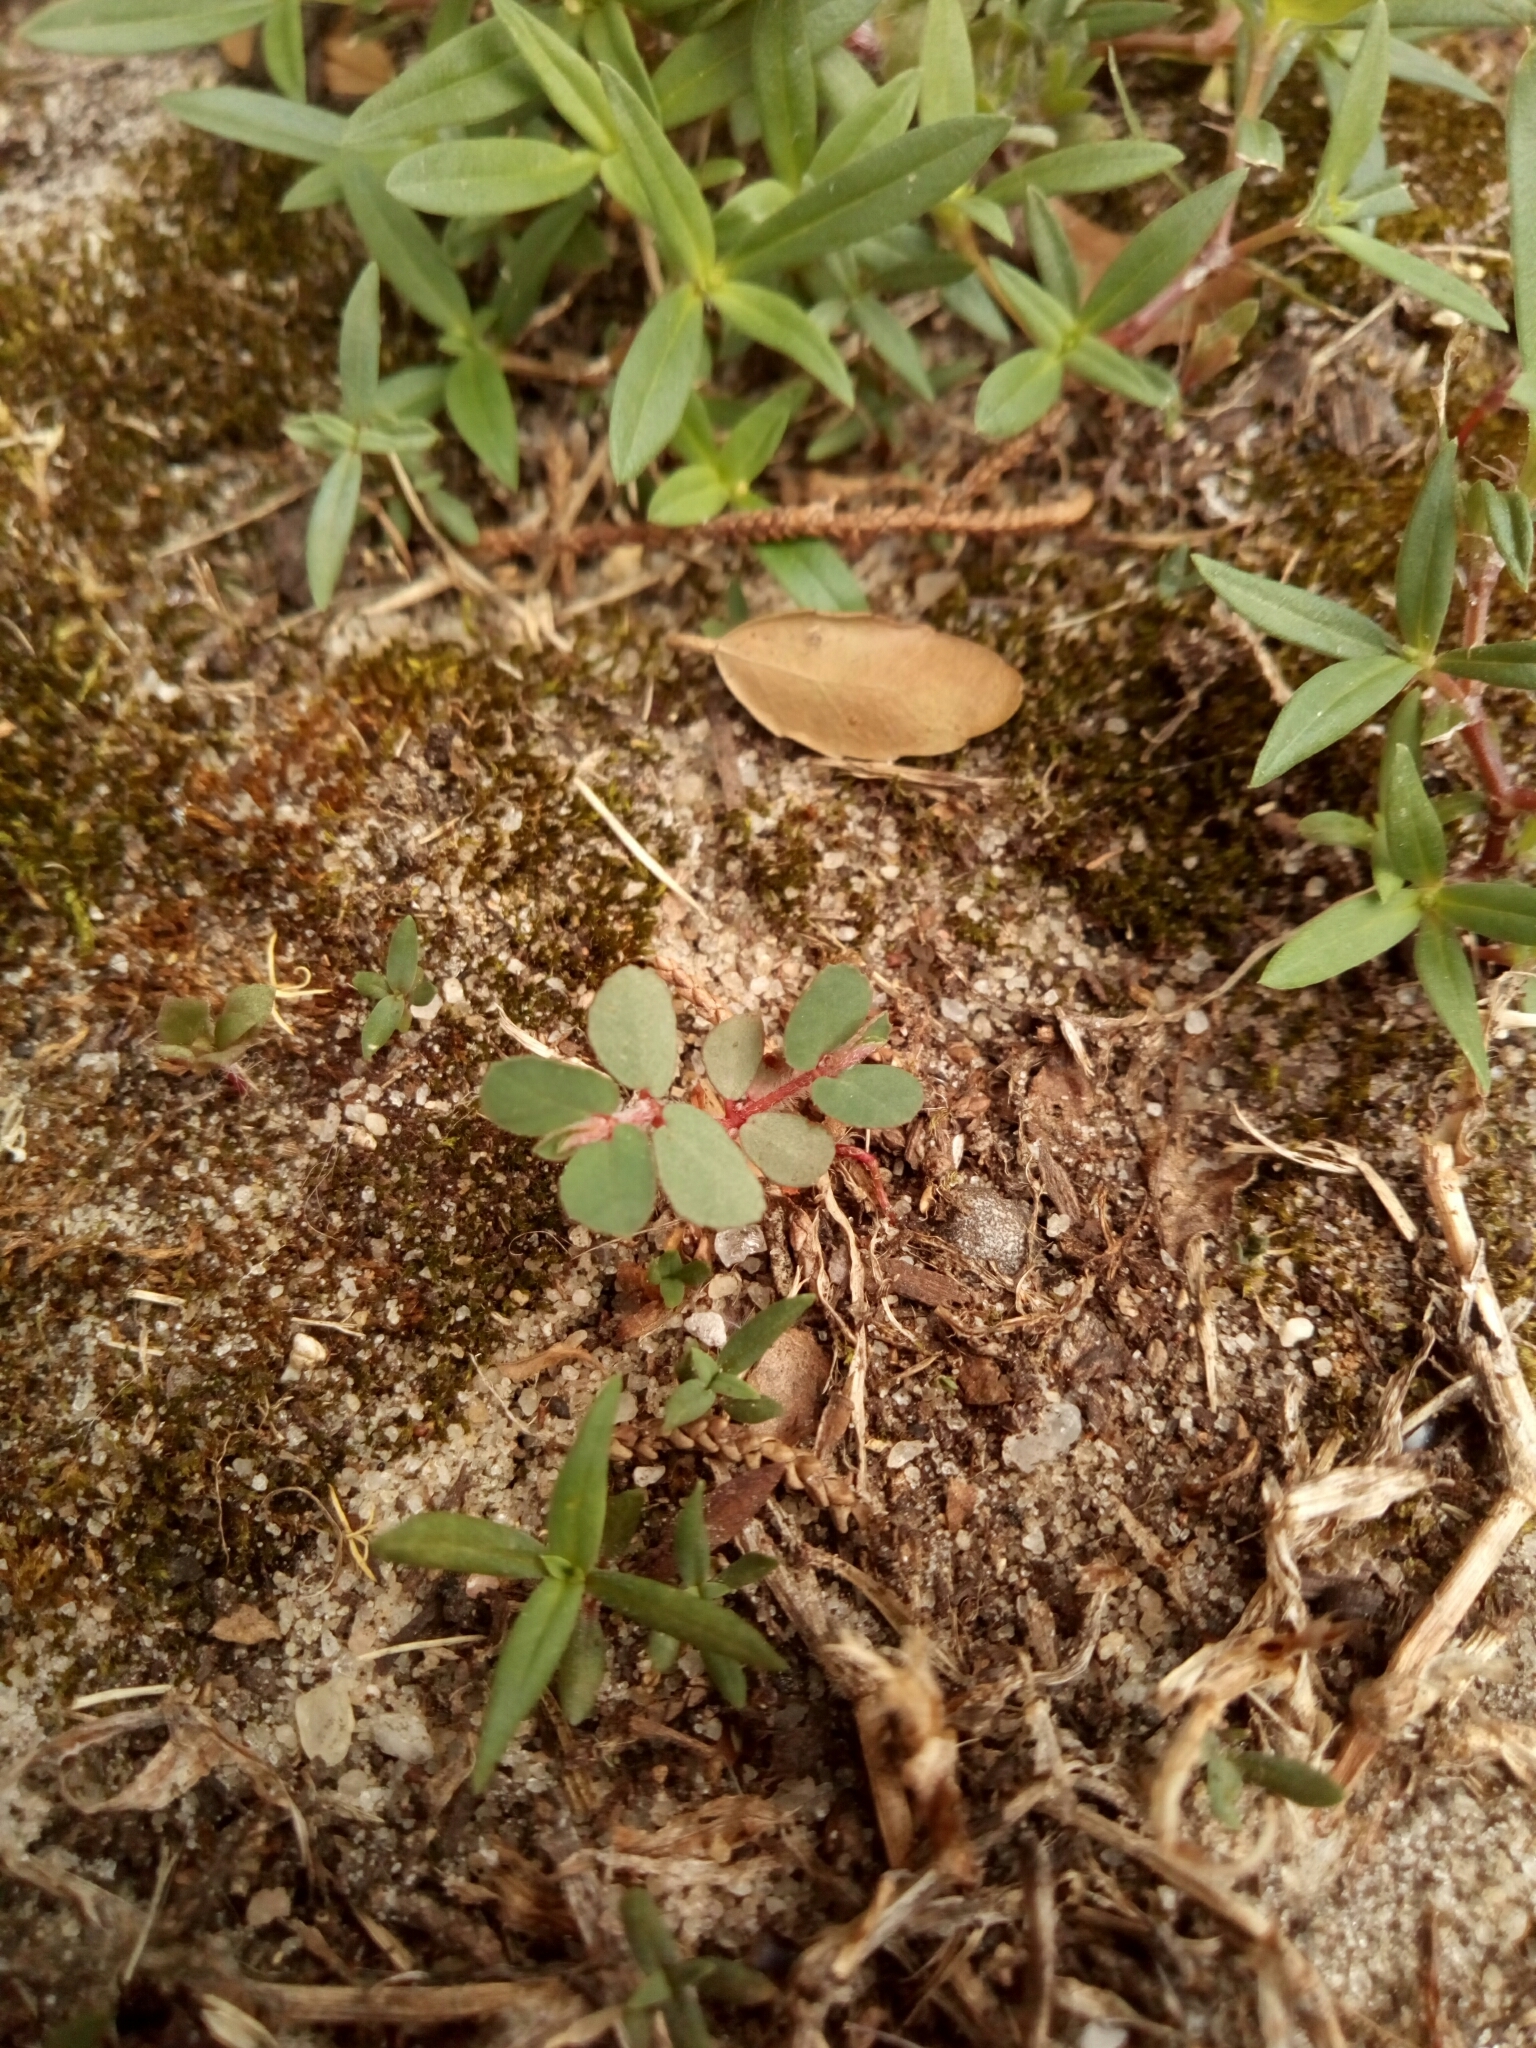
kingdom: Plantae
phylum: Tracheophyta
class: Magnoliopsida
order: Malpighiales
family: Euphorbiaceae
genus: Euphorbia
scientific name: Euphorbia maculata
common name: Spotted spurge
